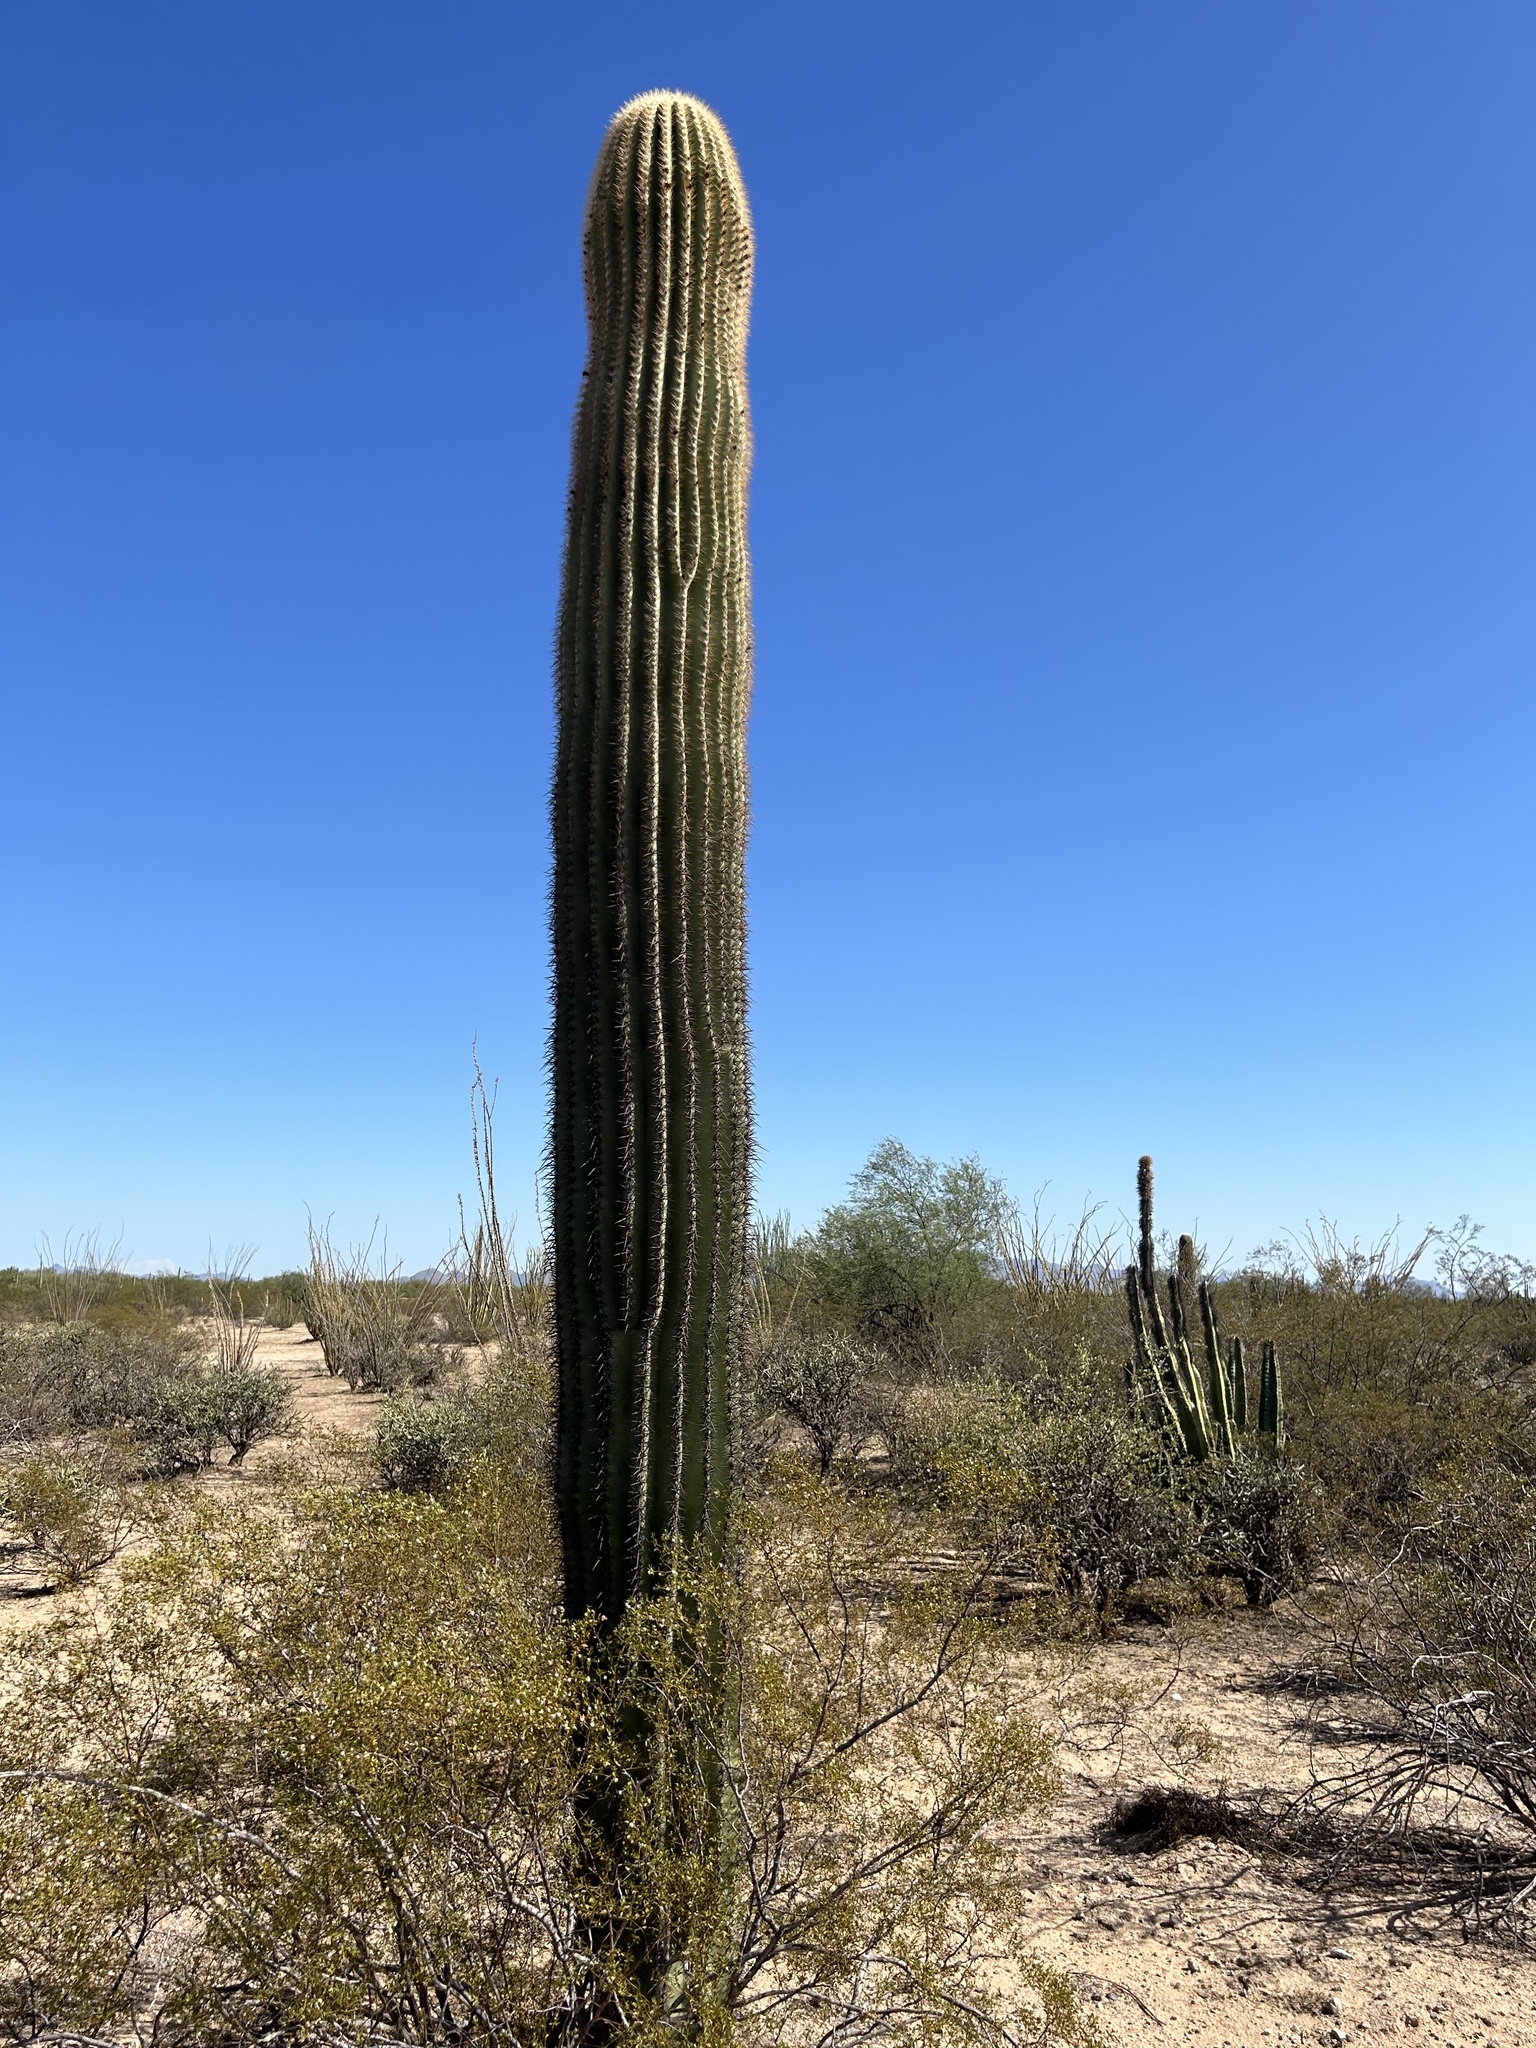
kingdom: Plantae
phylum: Tracheophyta
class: Magnoliopsida
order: Caryophyllales
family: Cactaceae
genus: Carnegiea
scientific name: Carnegiea gigantea
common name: Saguaro
